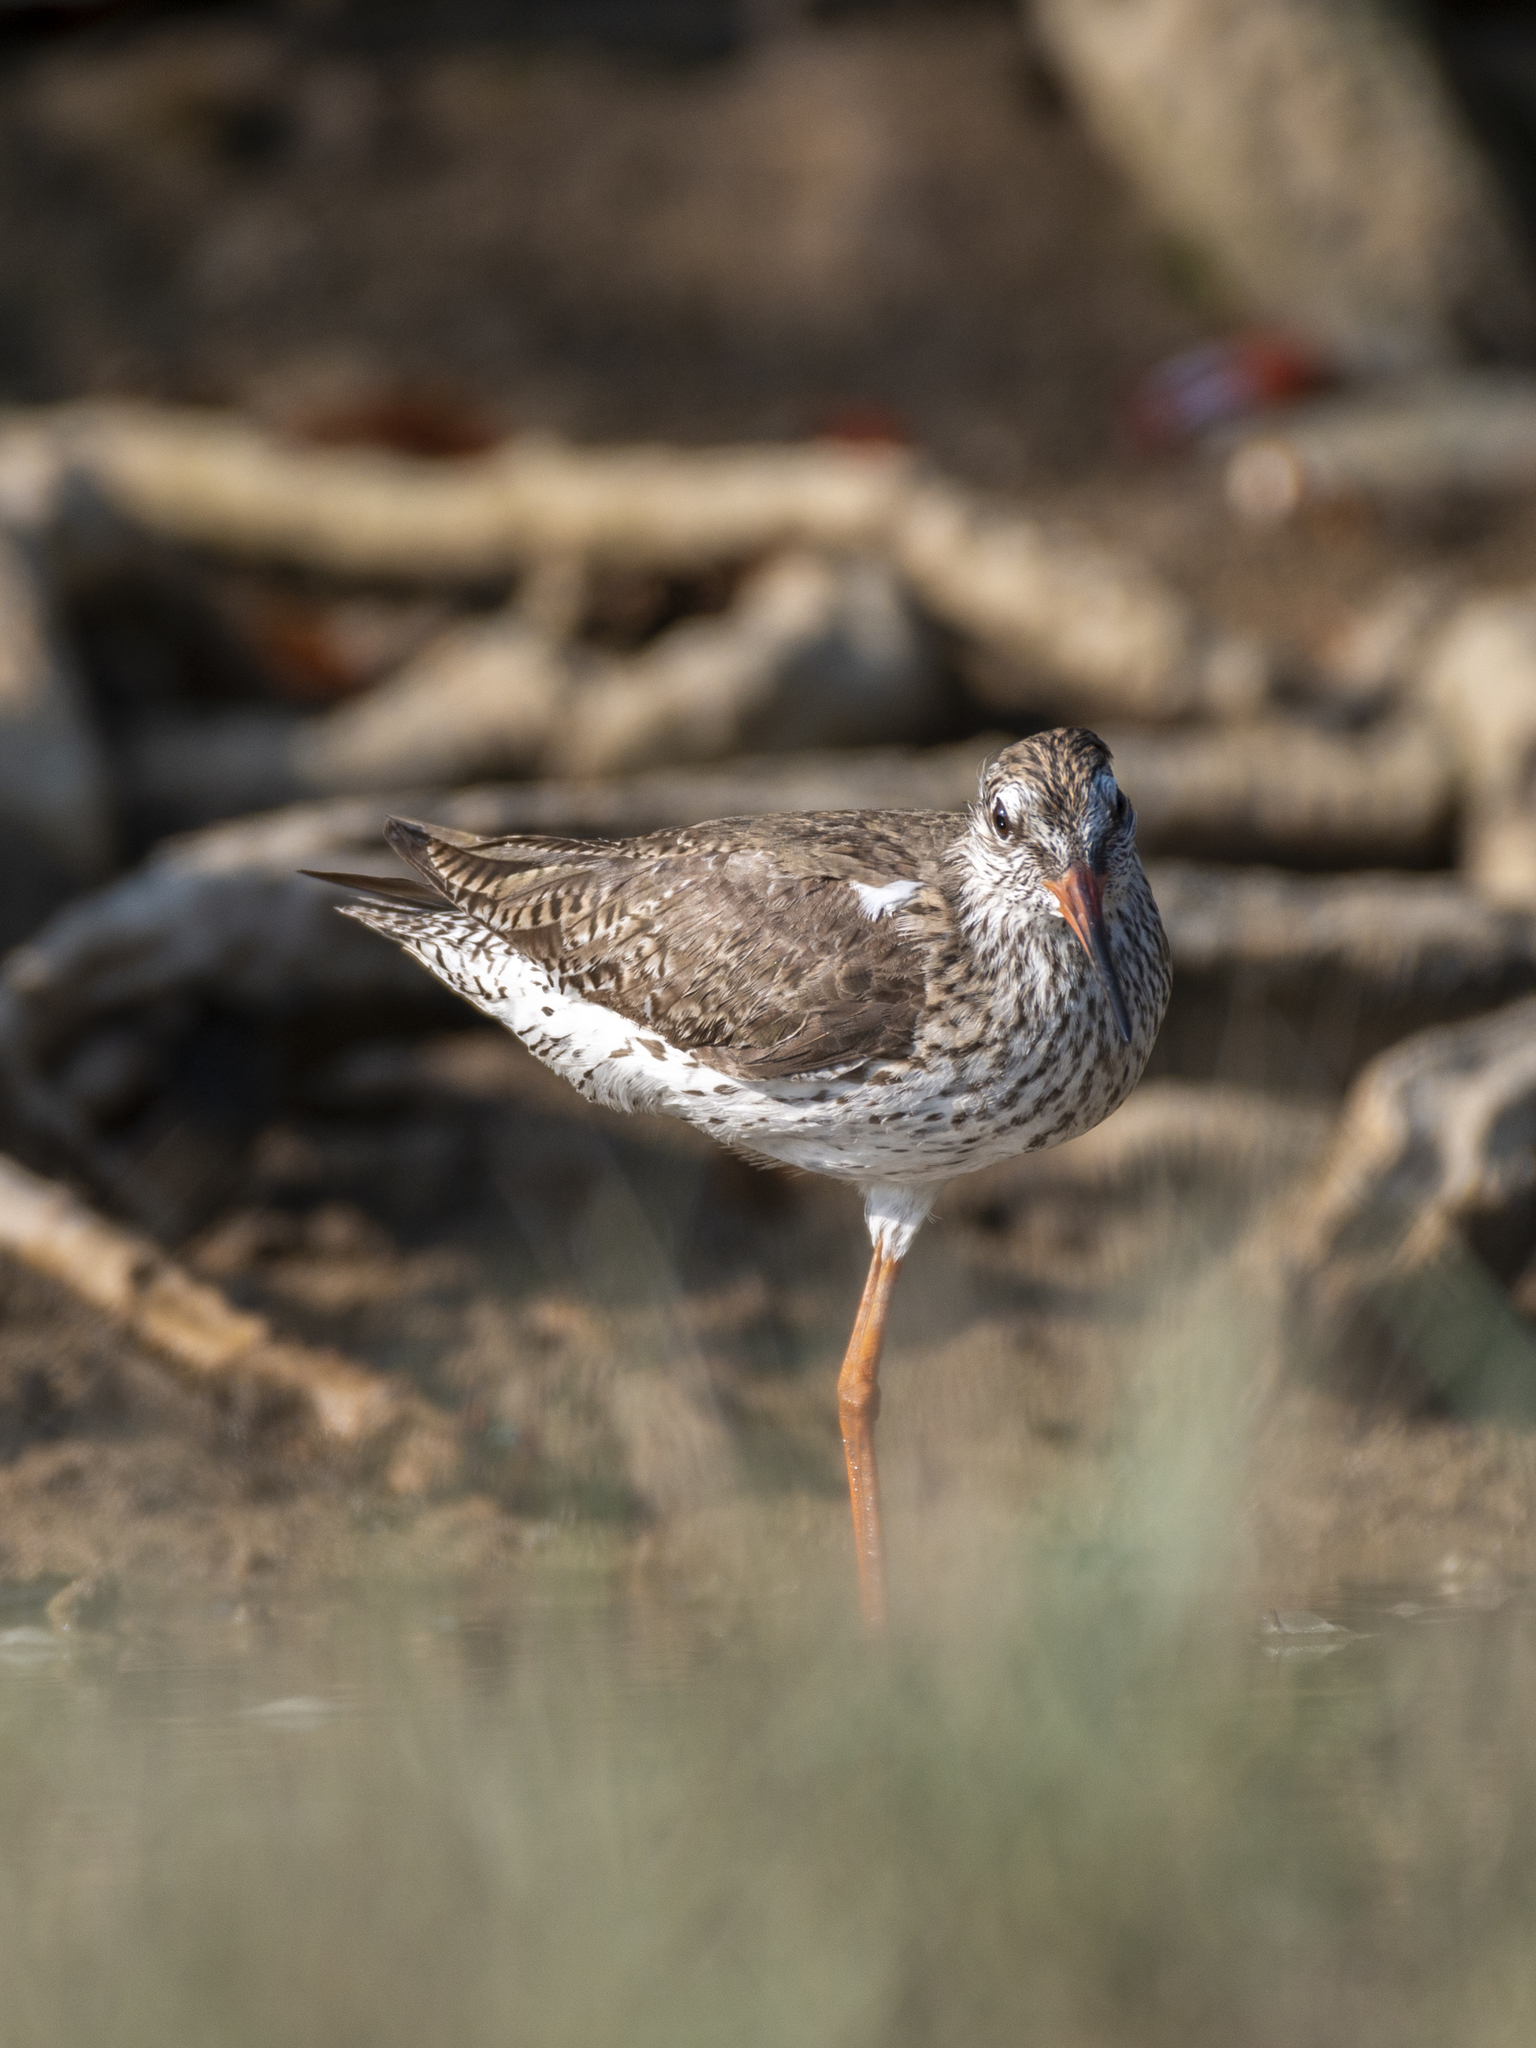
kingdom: Animalia
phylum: Chordata
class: Aves
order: Charadriiformes
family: Scolopacidae
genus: Tringa
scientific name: Tringa totanus
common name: Common redshank
